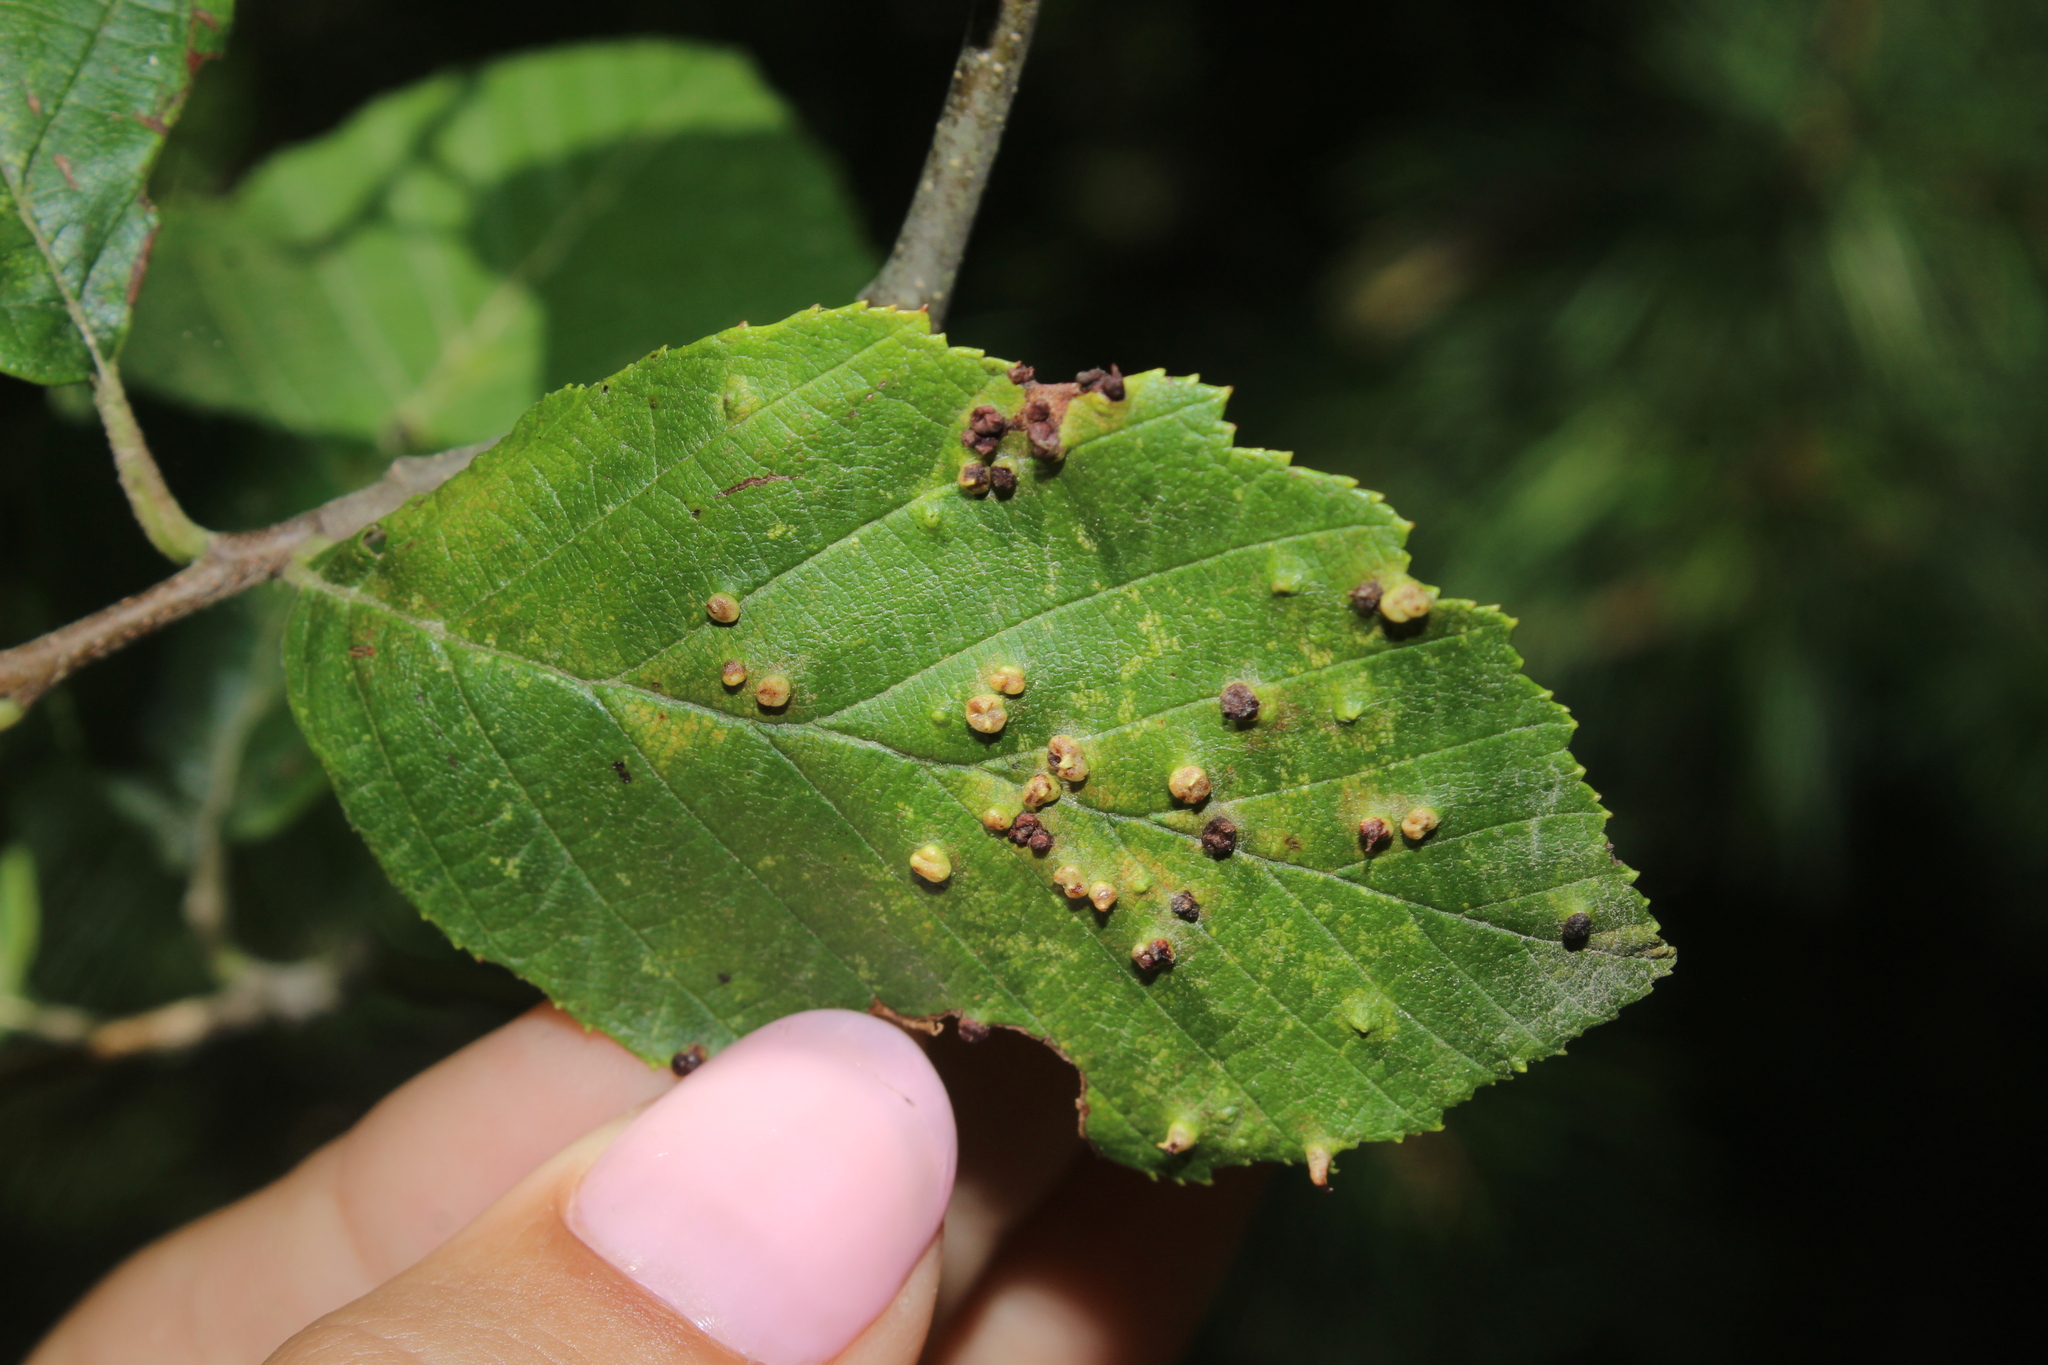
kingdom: Animalia
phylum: Arthropoda
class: Arachnida
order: Trombidiformes
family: Eriophyidae
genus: Eriophyes
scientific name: Eriophyes laevis
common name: Alder leaf gall mite
